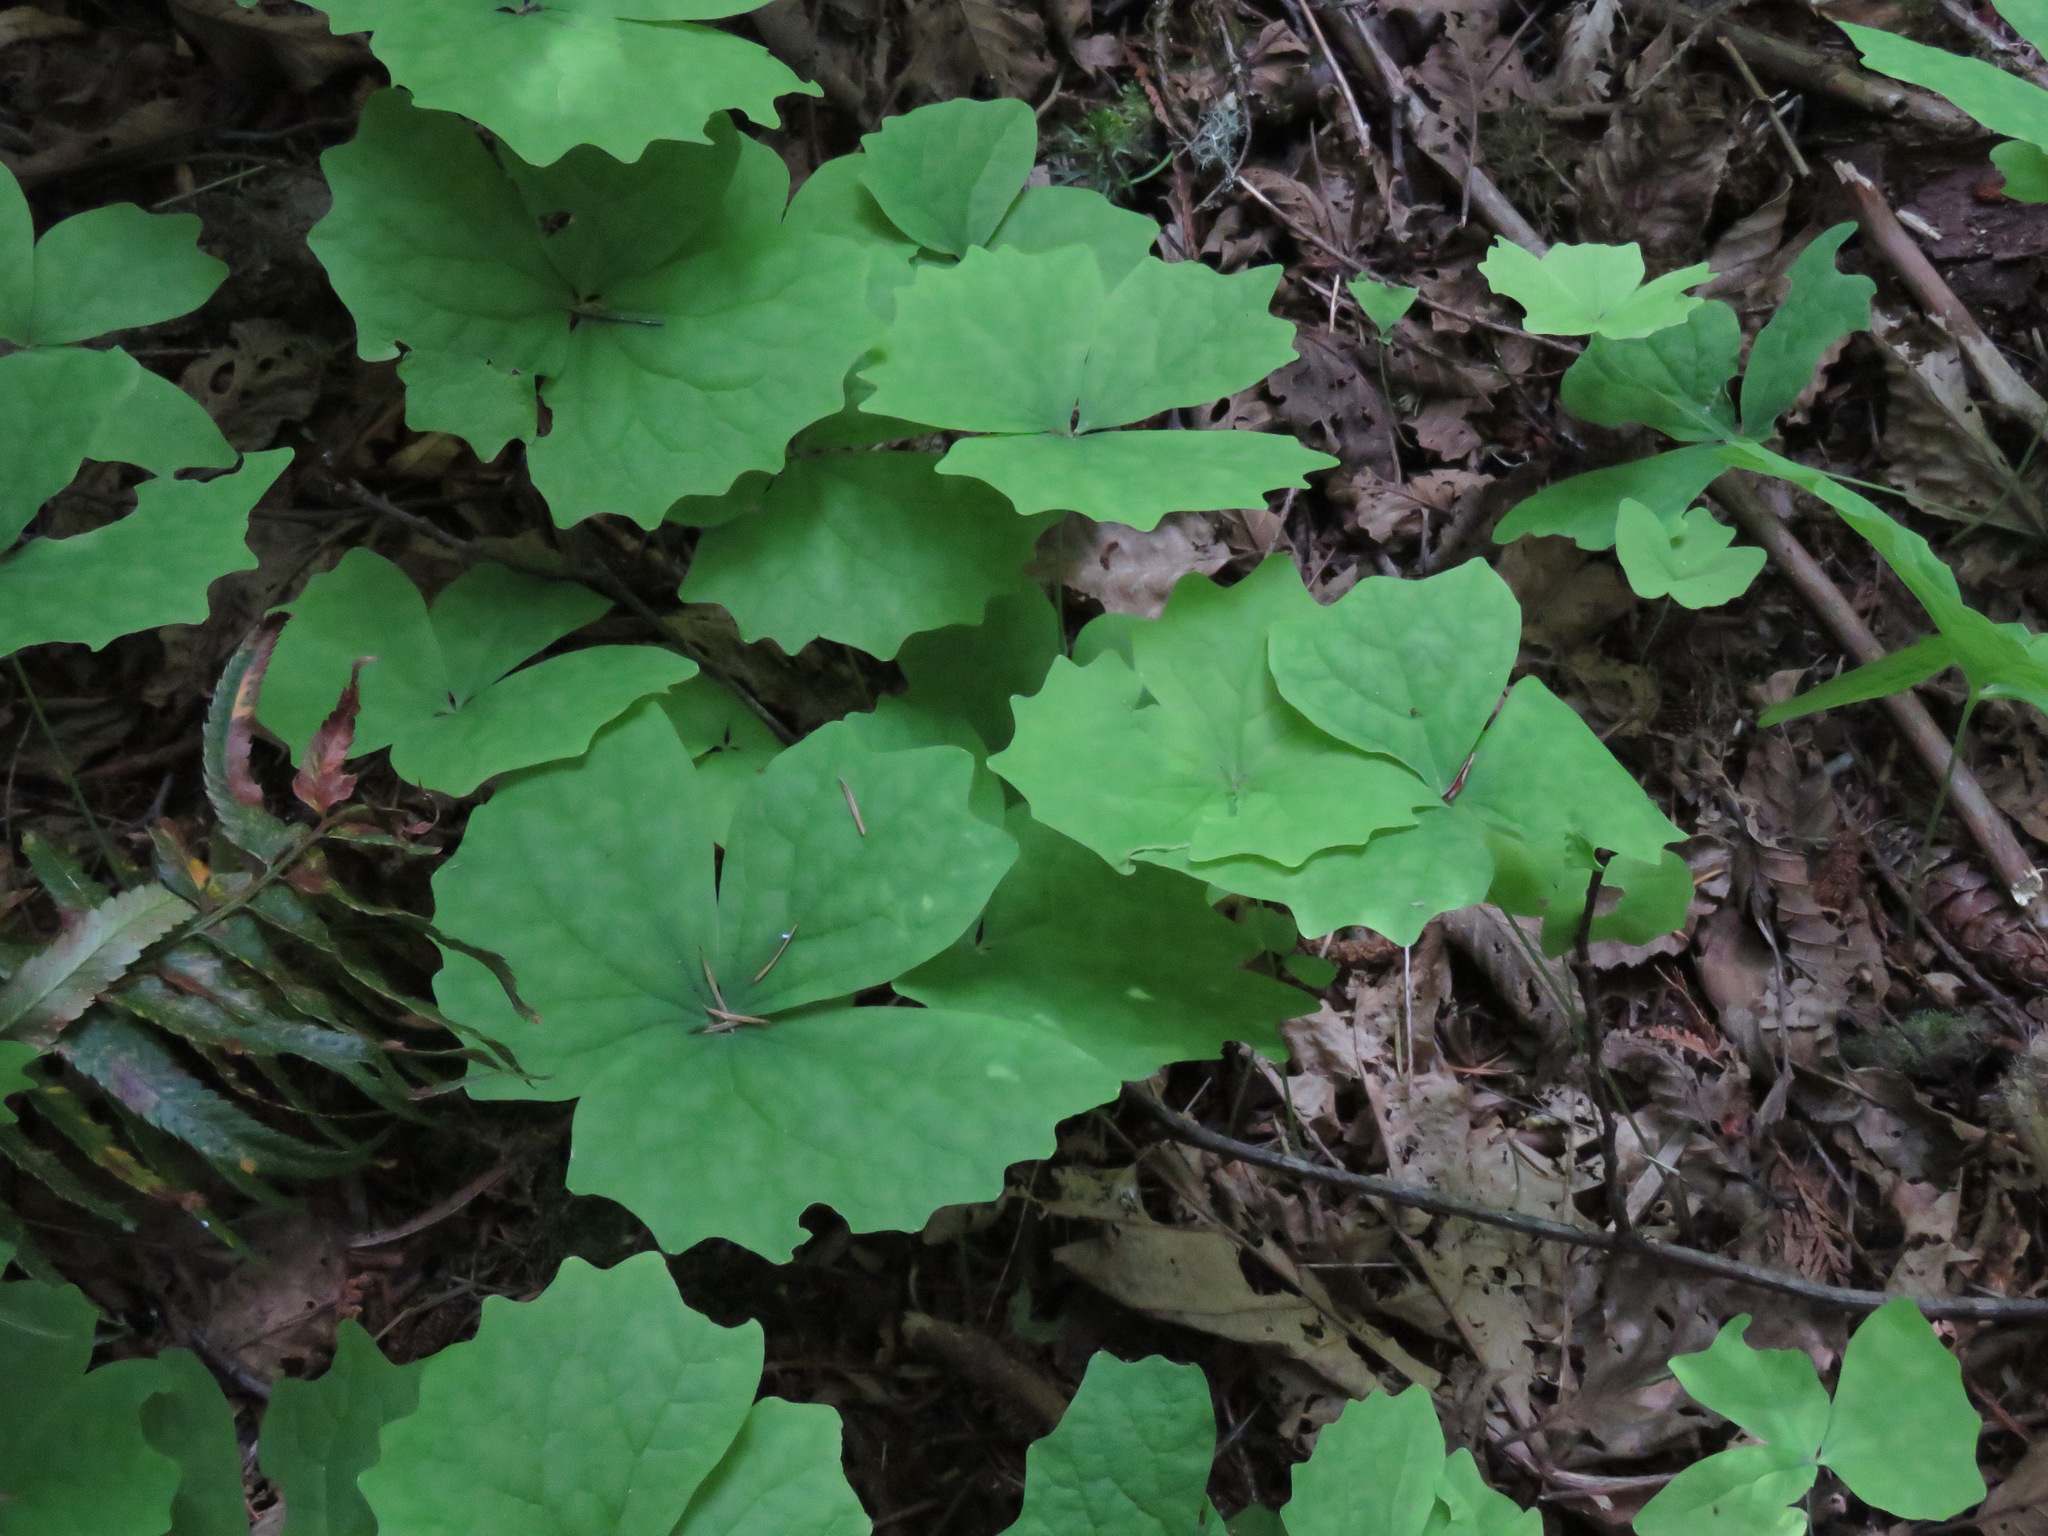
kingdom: Plantae
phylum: Tracheophyta
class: Magnoliopsida
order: Ranunculales
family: Berberidaceae
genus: Achlys
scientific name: Achlys triphylla
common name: Vanilla-leaf
